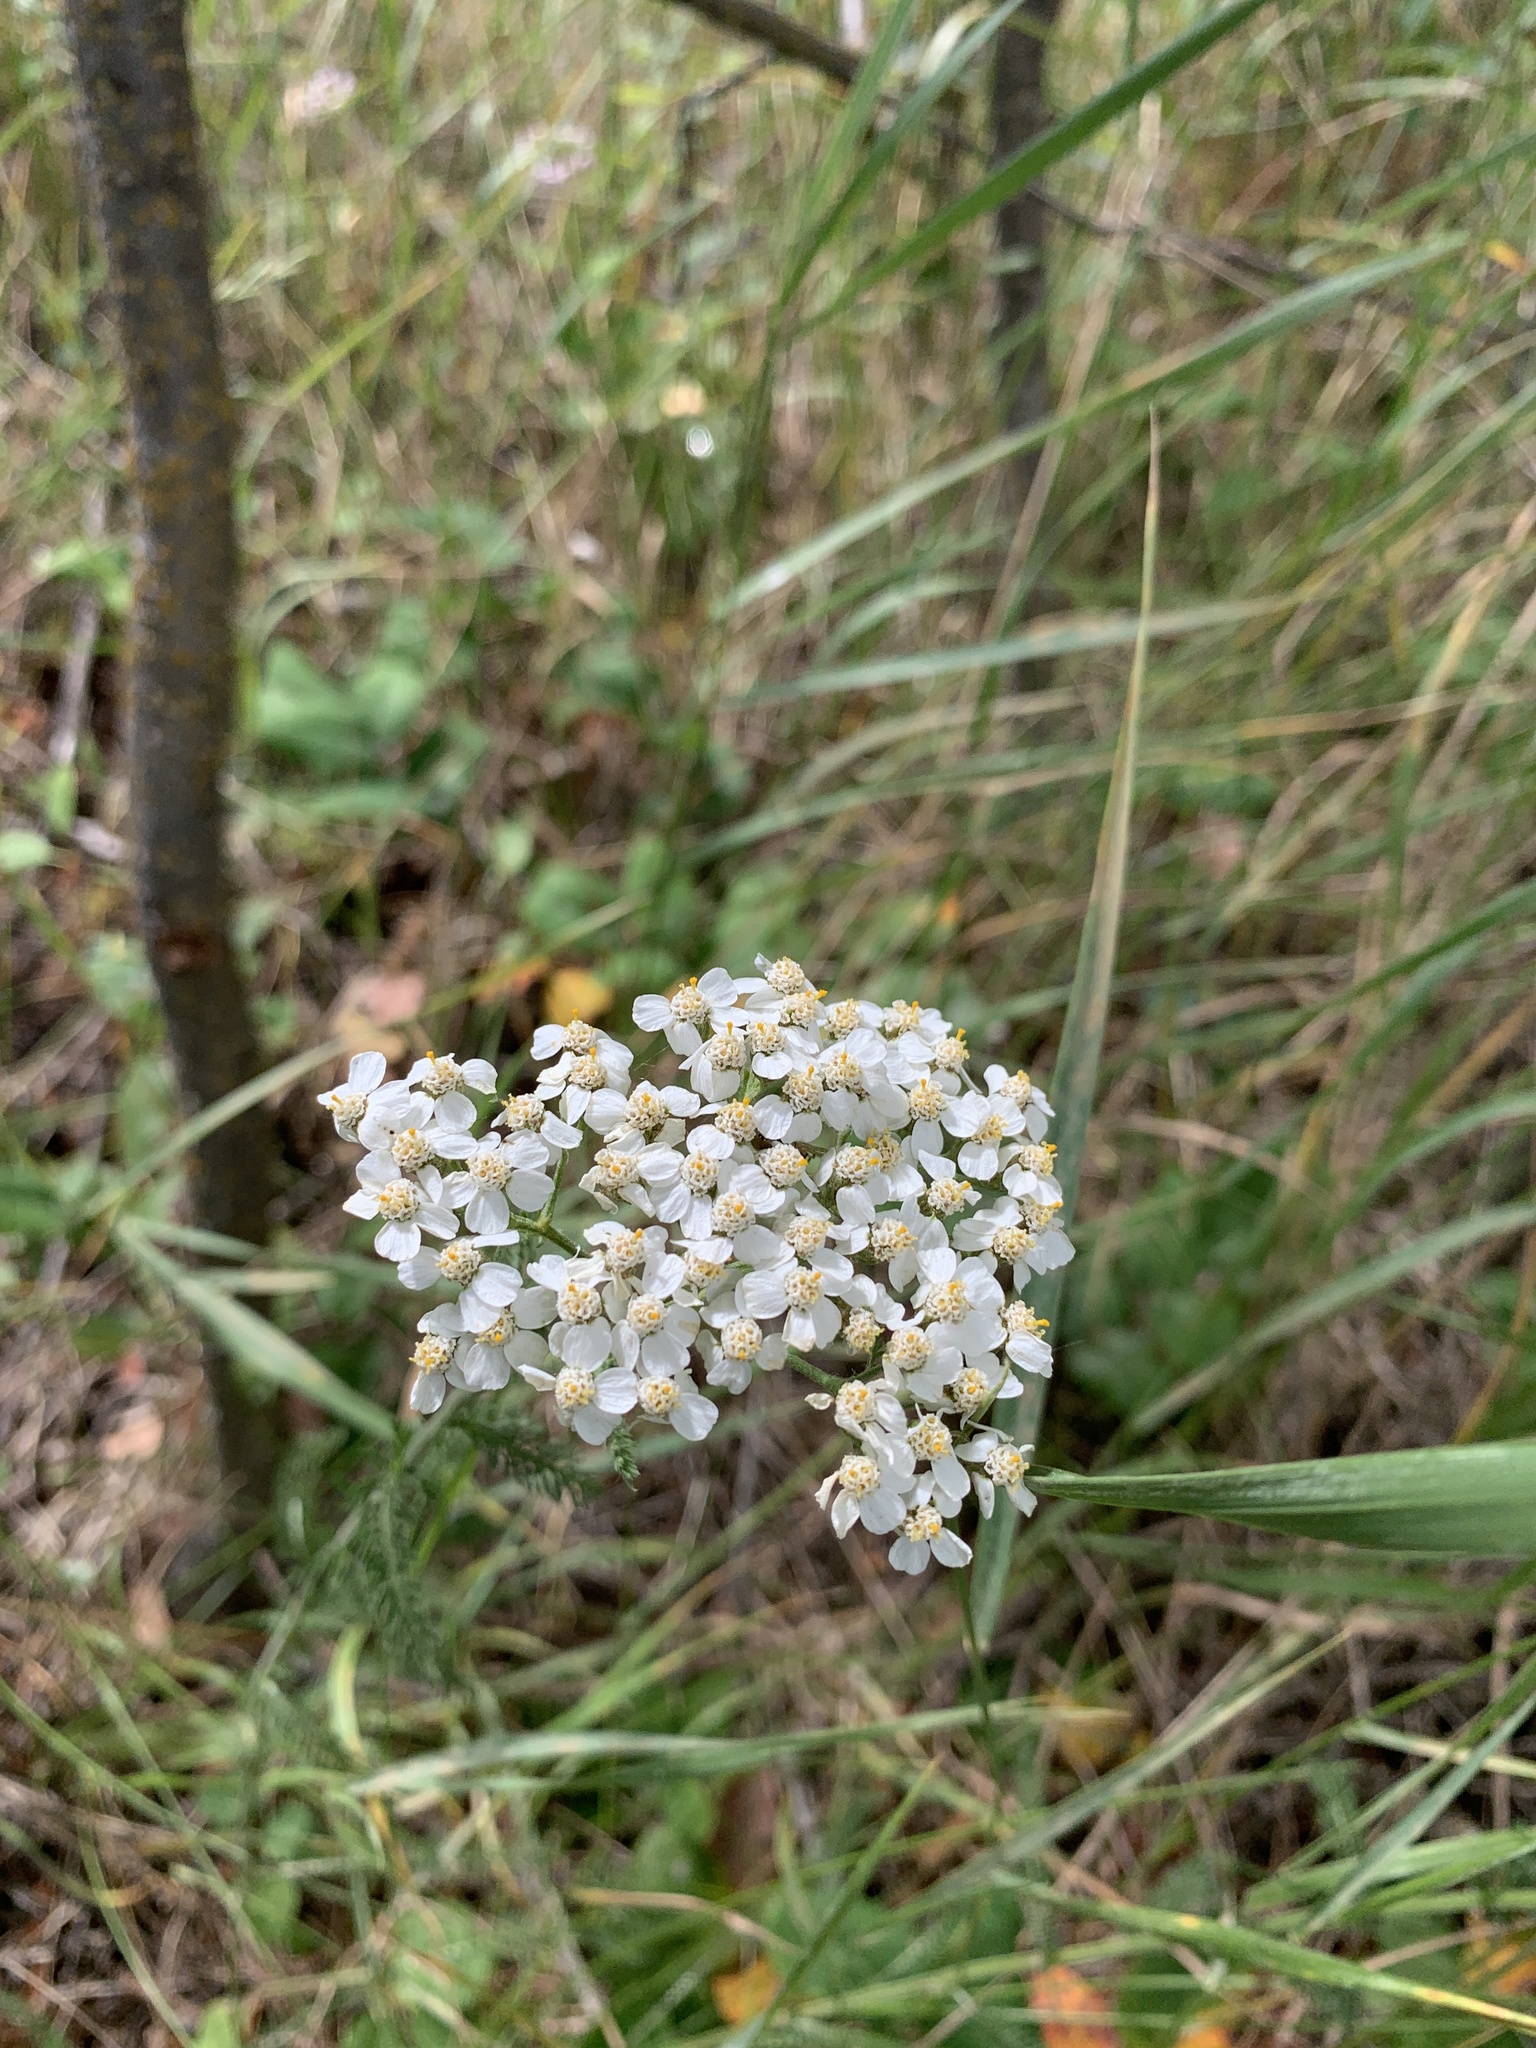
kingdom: Plantae
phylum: Tracheophyta
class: Magnoliopsida
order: Asterales
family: Asteraceae
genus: Achillea
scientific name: Achillea millefolium
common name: Yarrow
